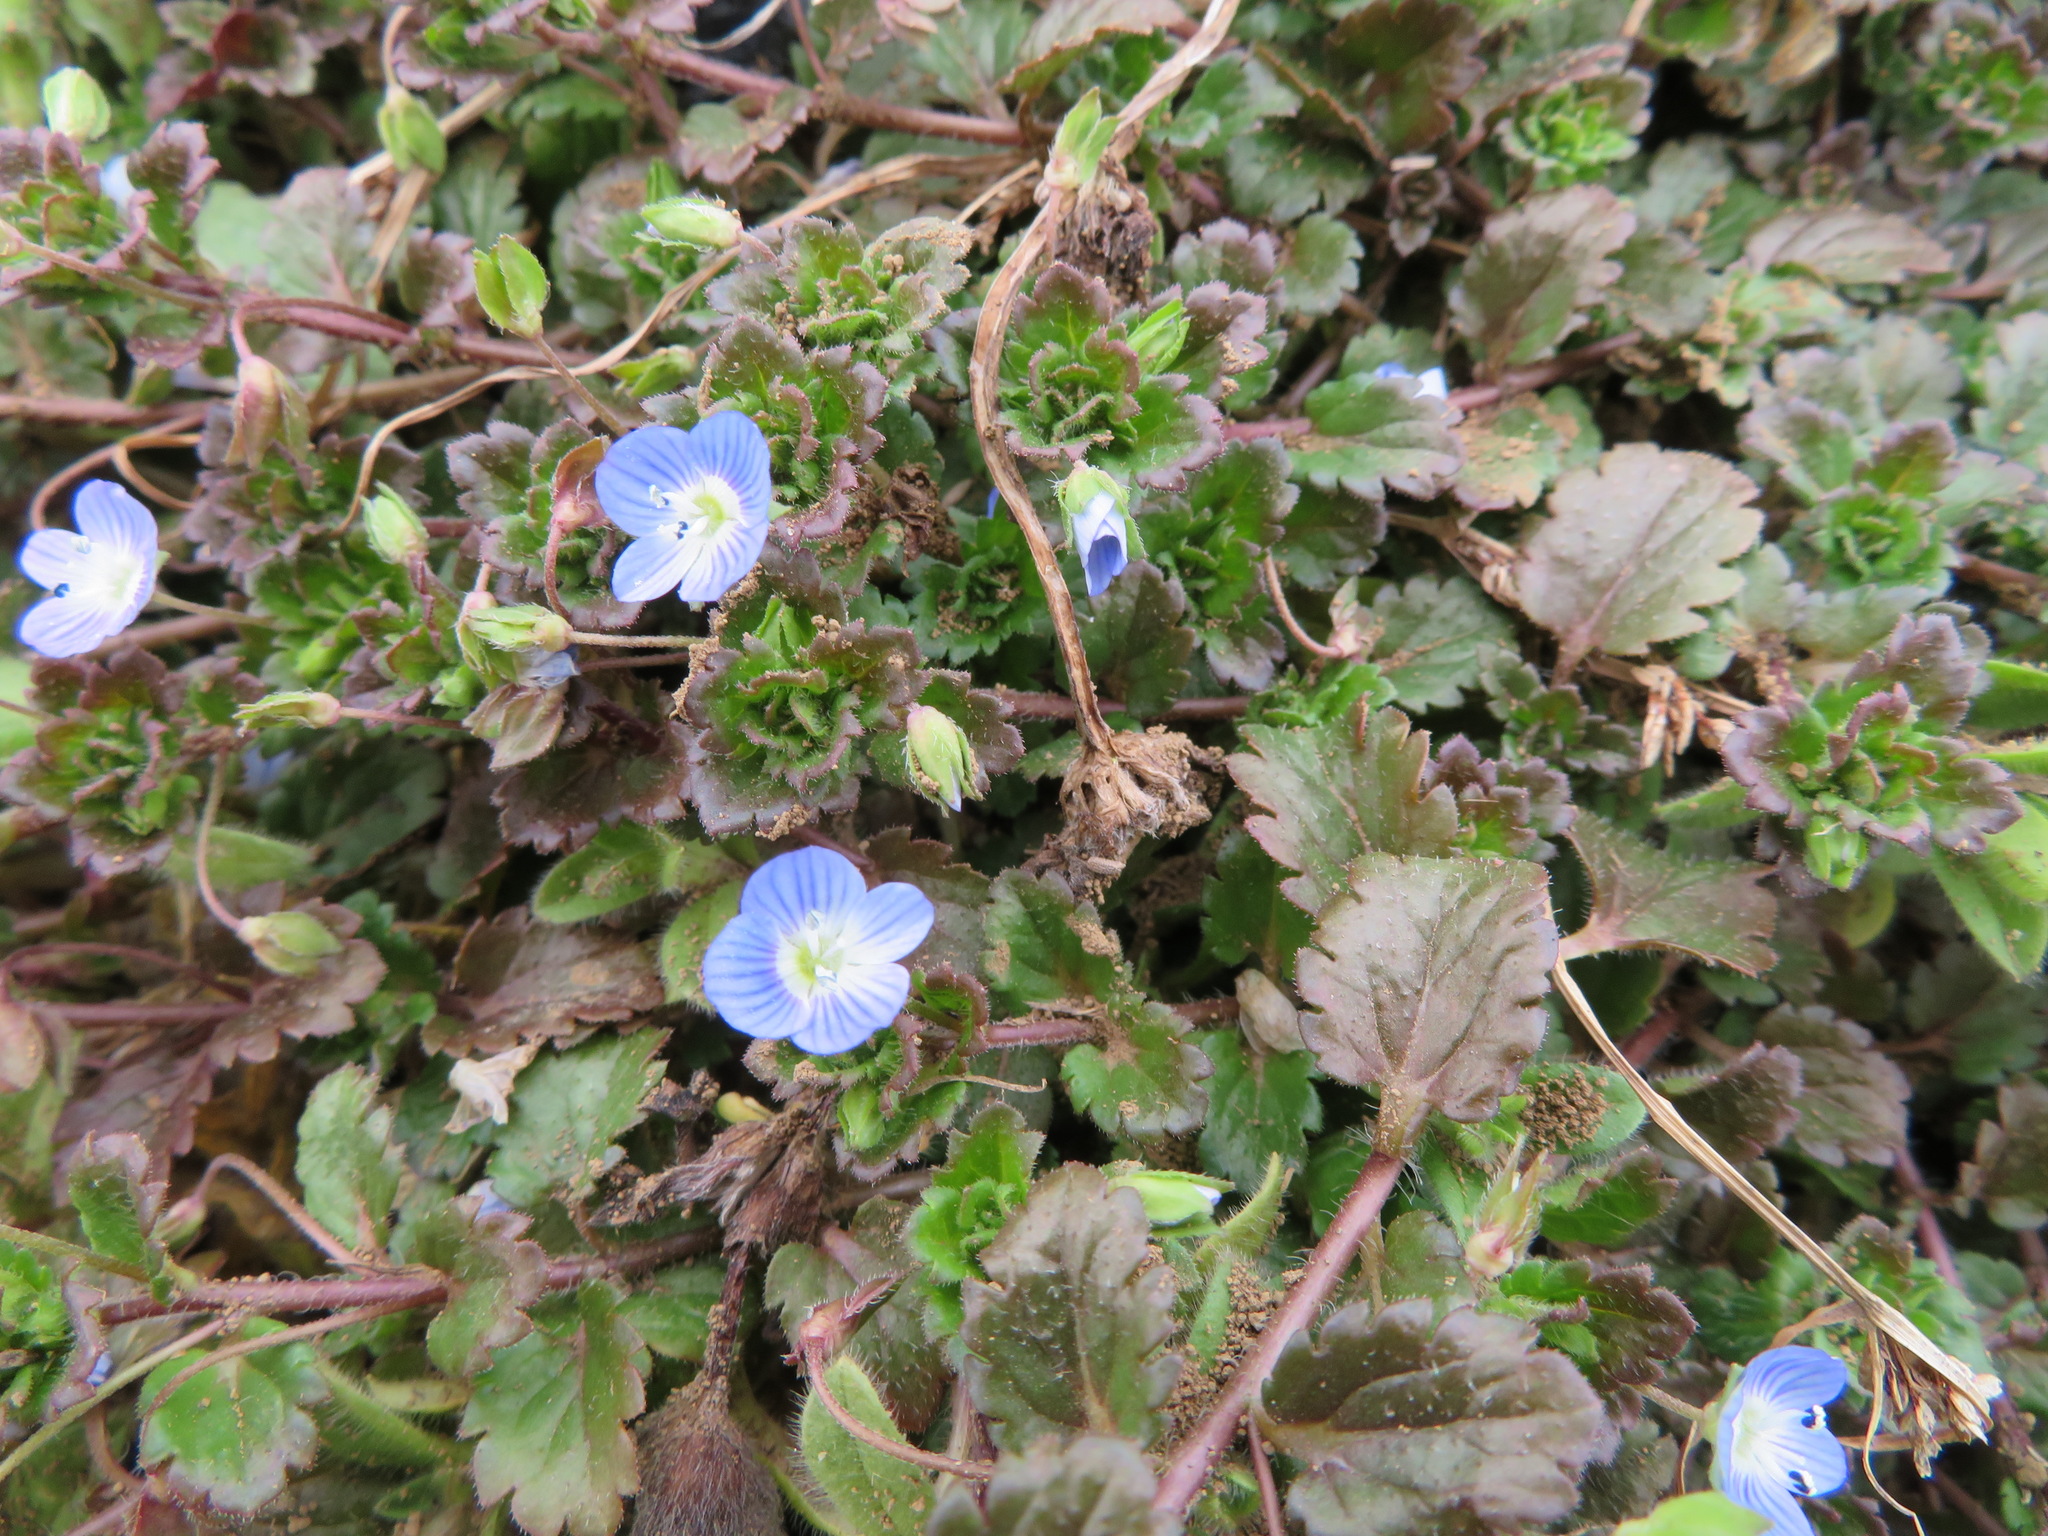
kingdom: Plantae
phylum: Tracheophyta
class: Magnoliopsida
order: Lamiales
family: Plantaginaceae
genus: Veronica
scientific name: Veronica persica
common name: Common field-speedwell
